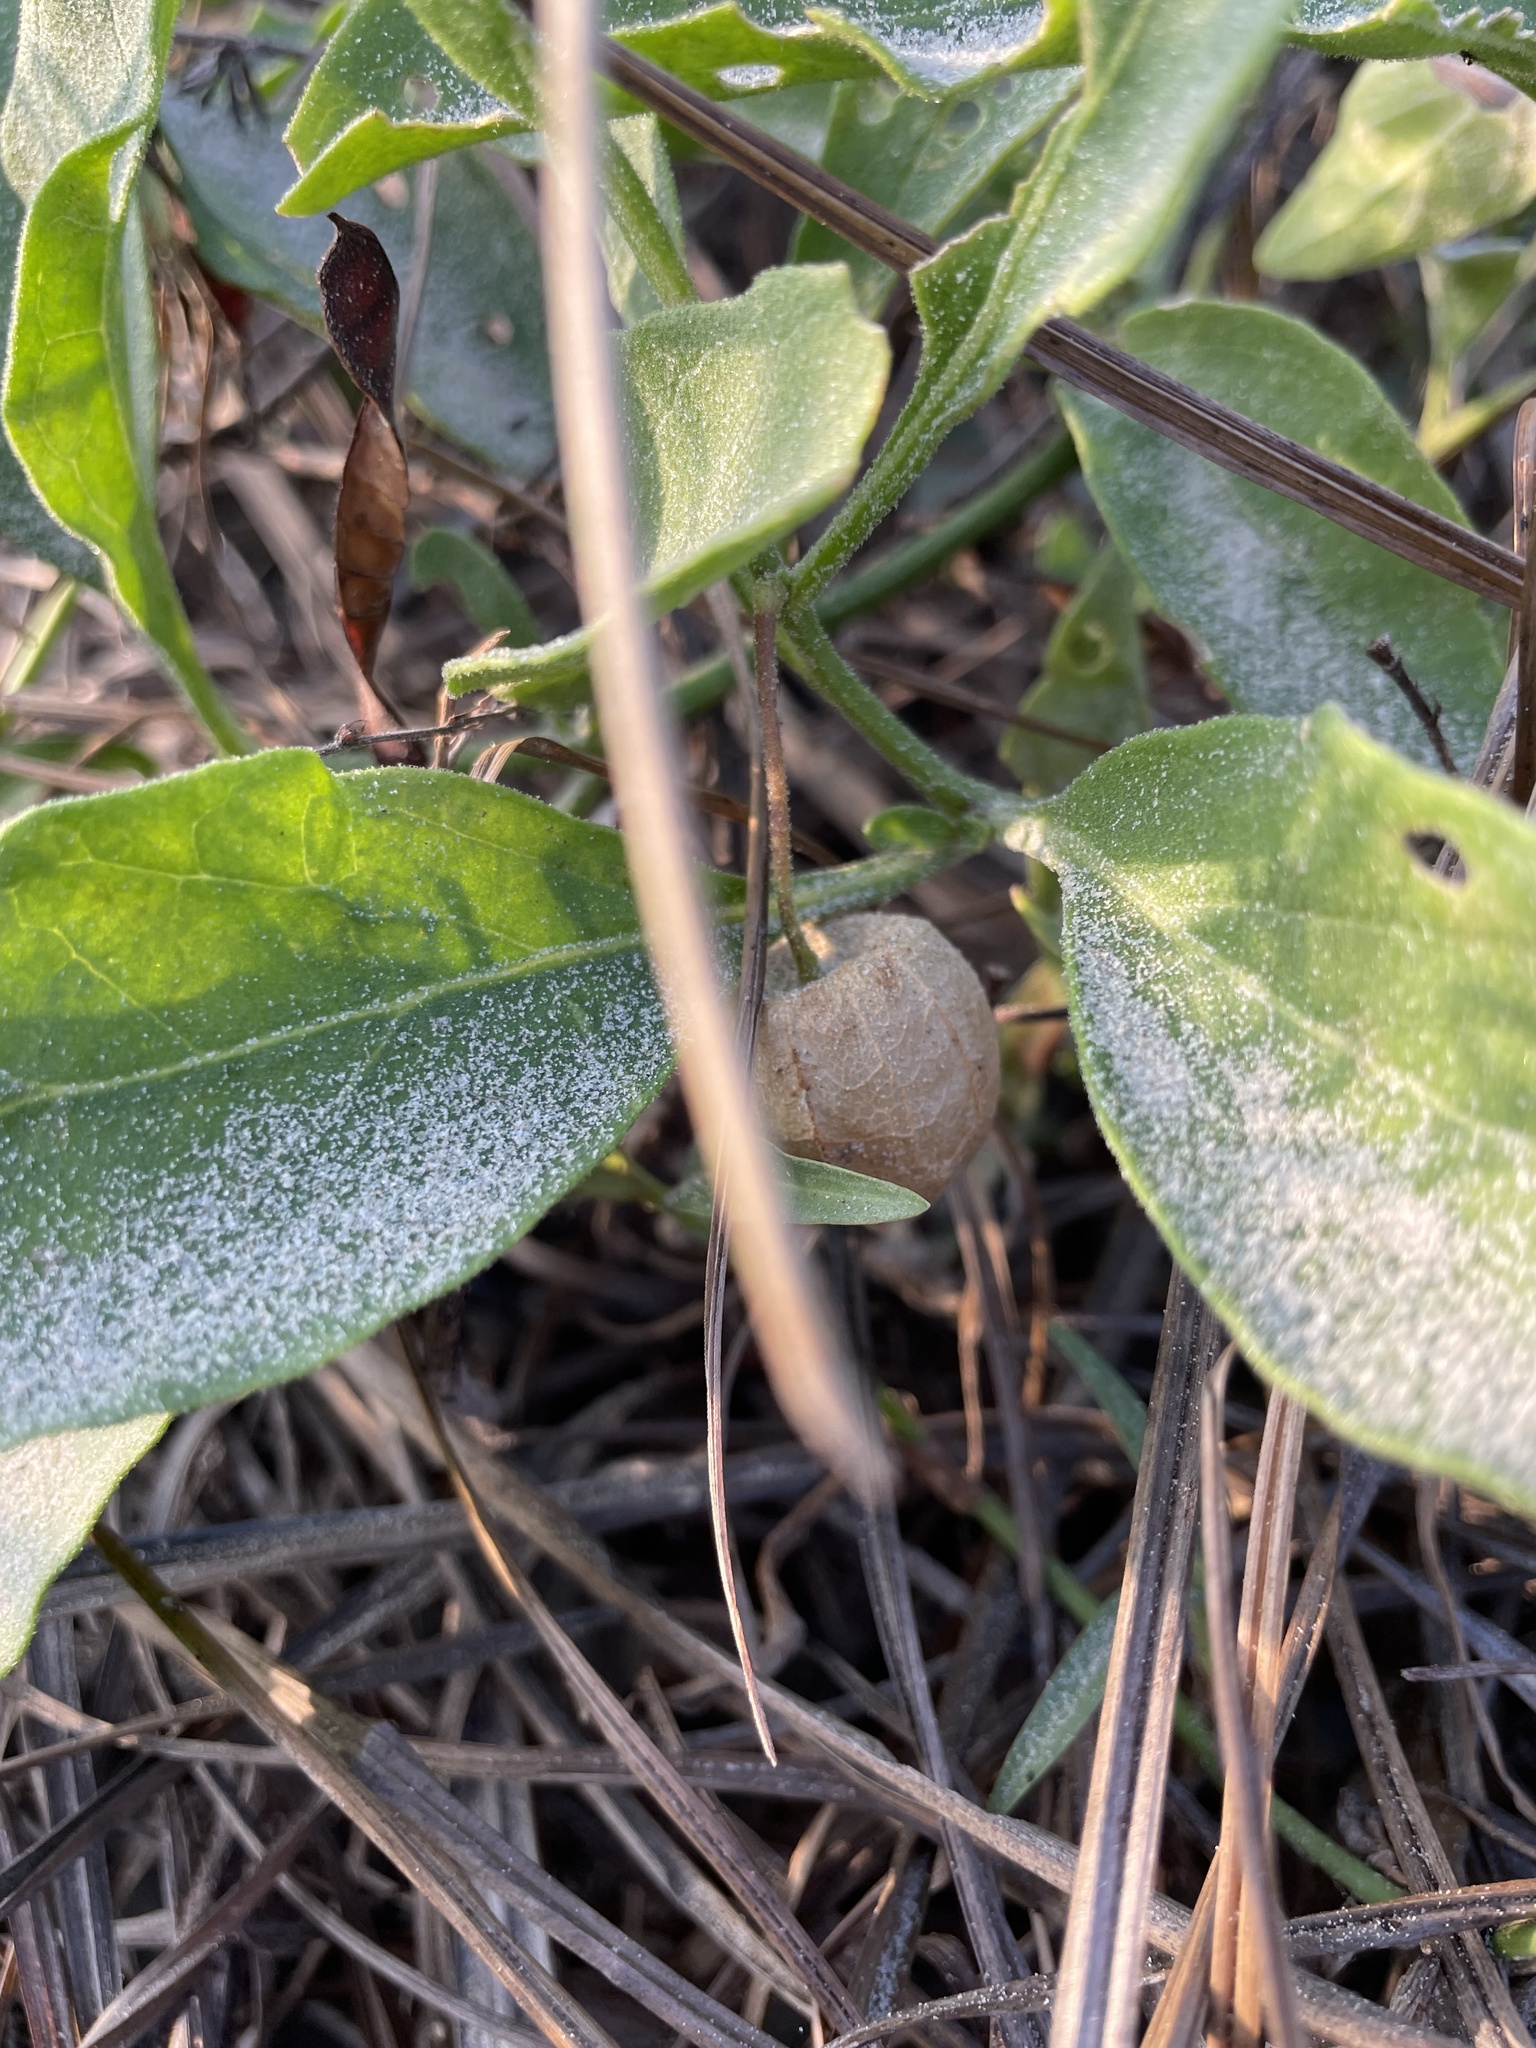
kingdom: Plantae
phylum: Tracheophyta
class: Magnoliopsida
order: Solanales
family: Solanaceae
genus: Physalis
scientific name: Physalis cinerascens
